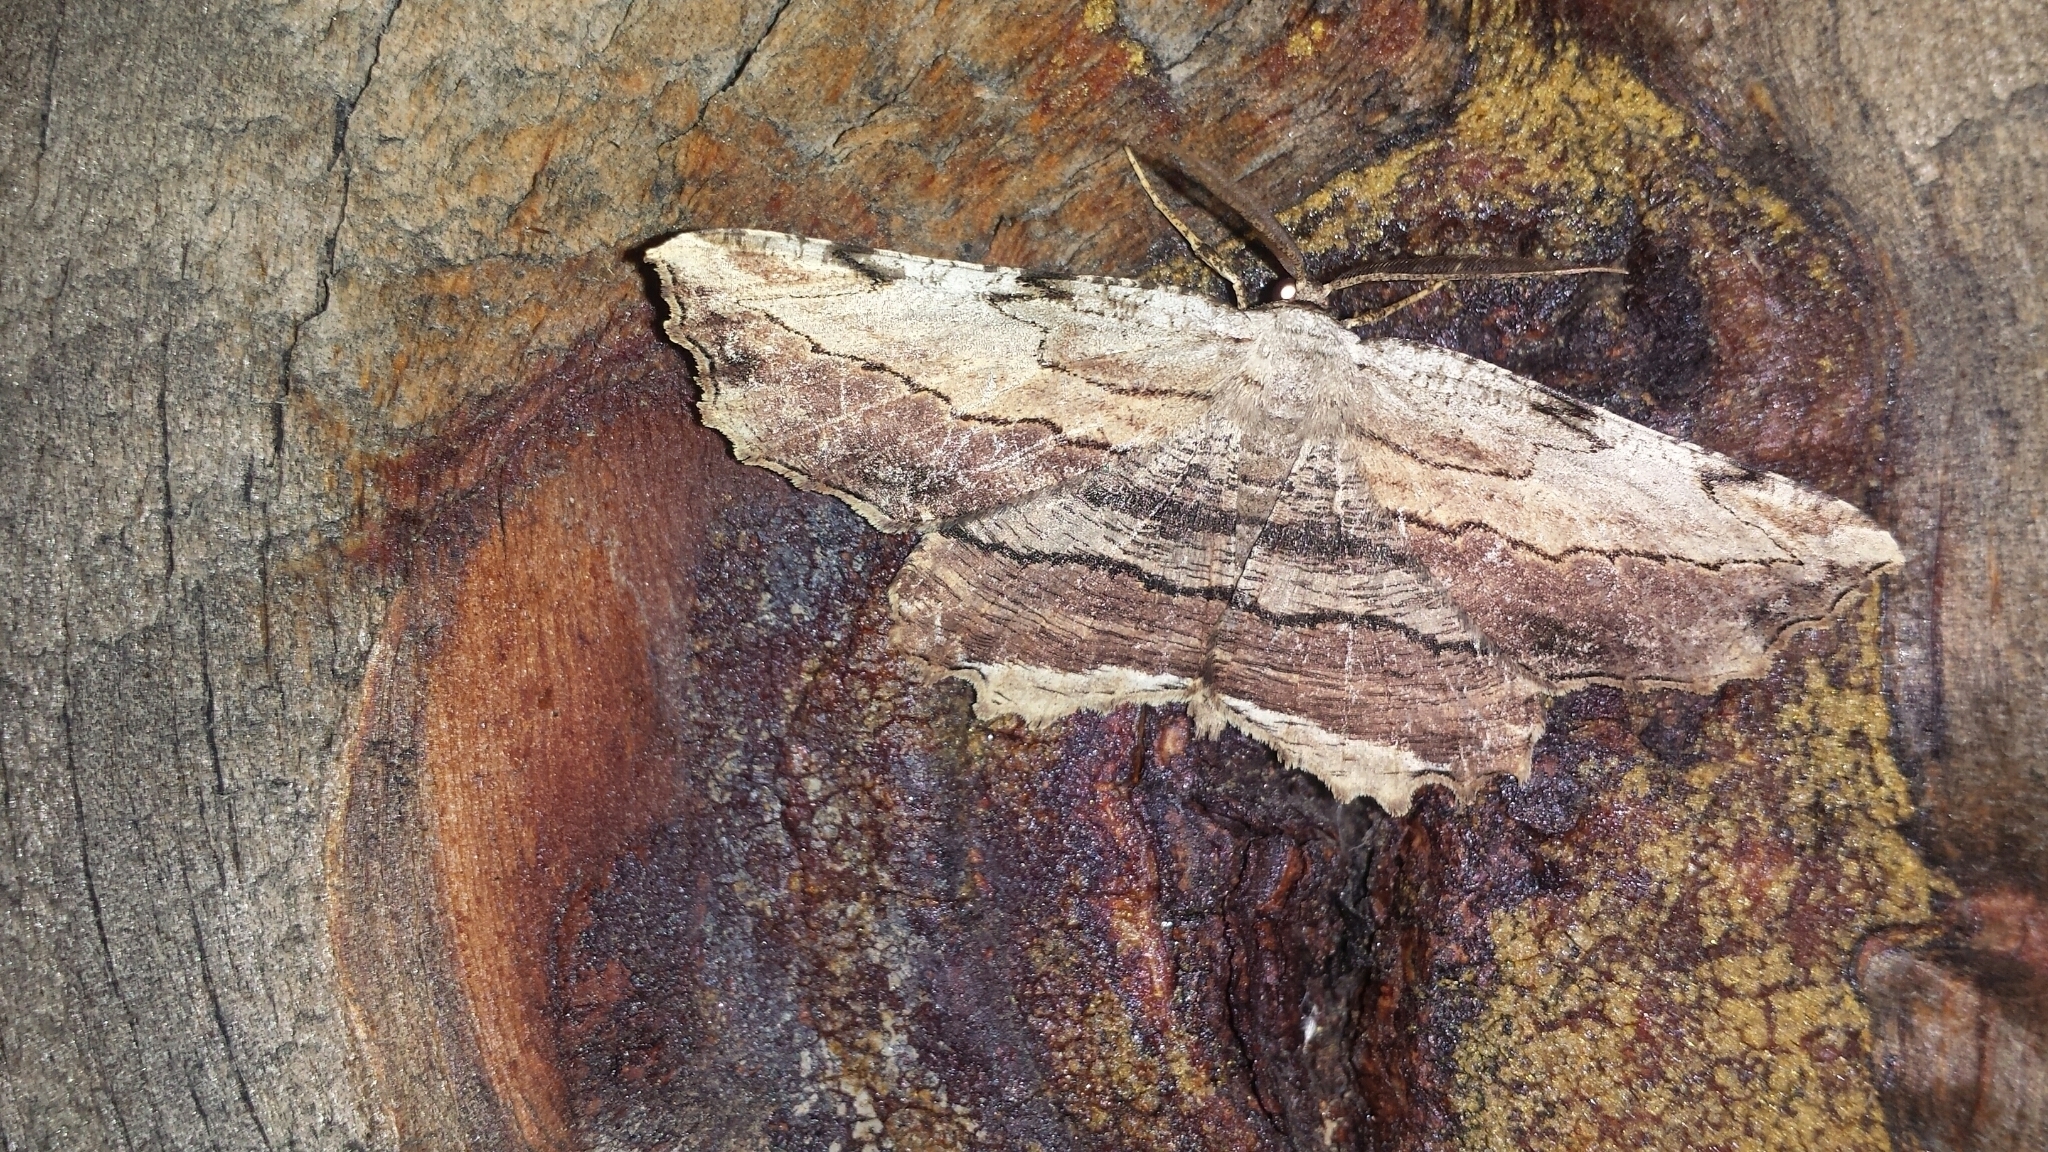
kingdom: Animalia
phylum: Arthropoda
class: Insecta
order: Lepidoptera
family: Geometridae
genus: Lytrosis
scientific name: Lytrosis unitaria
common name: Common lytrosis
